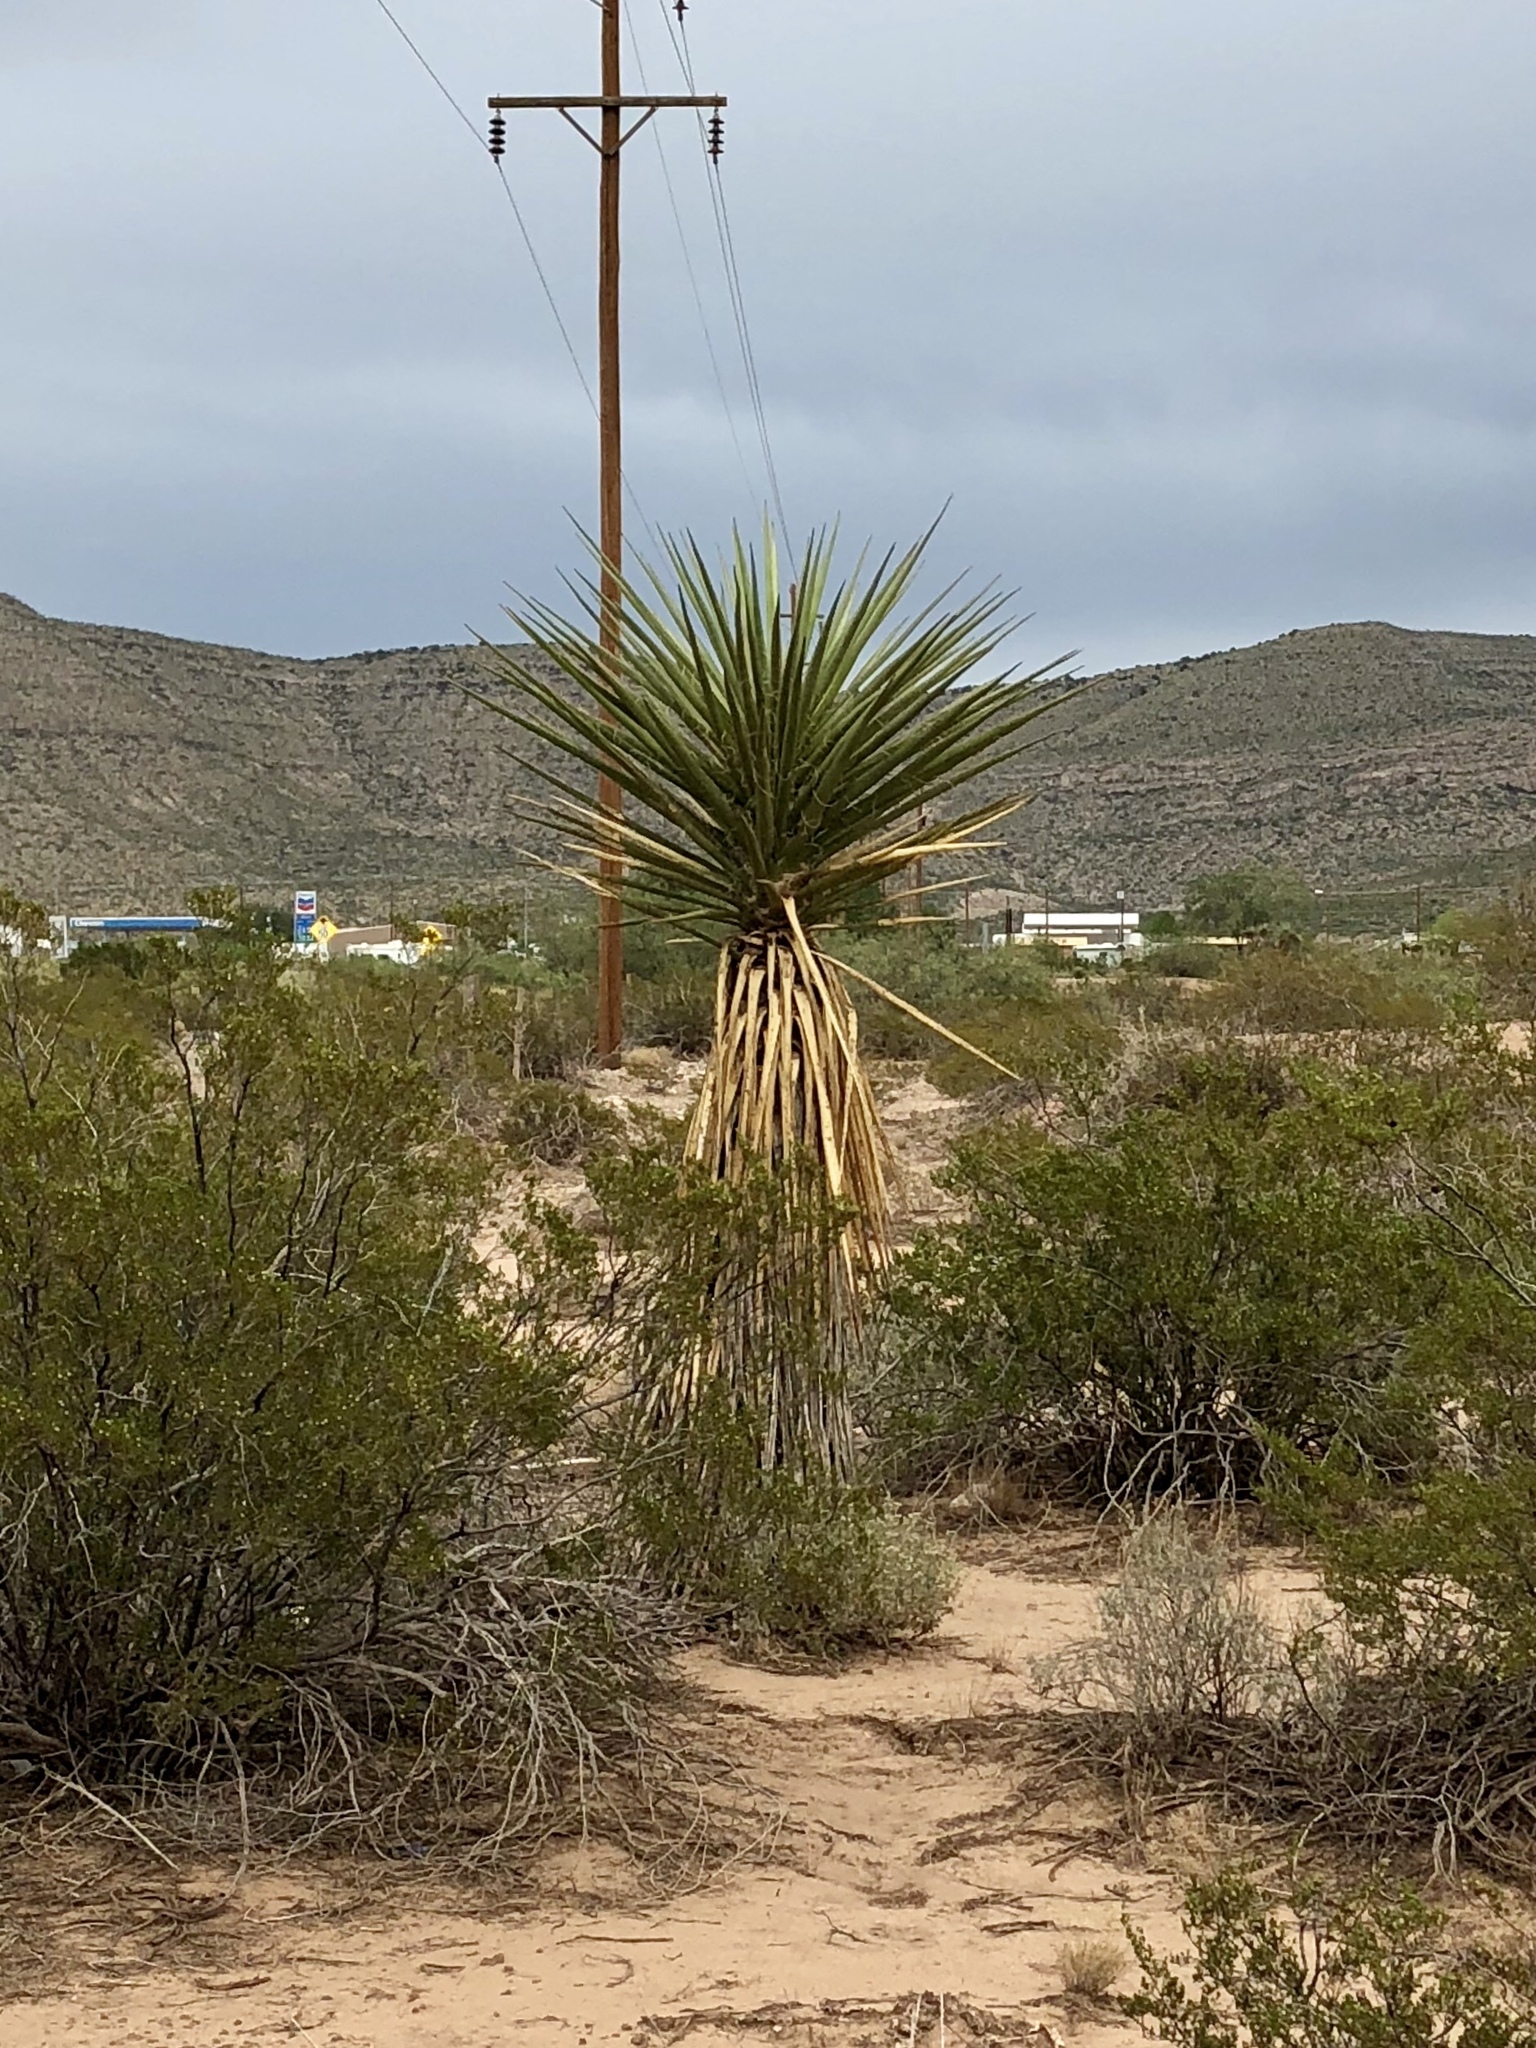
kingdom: Plantae
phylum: Tracheophyta
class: Liliopsida
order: Asparagales
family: Asparagaceae
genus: Yucca
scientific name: Yucca treculiana
